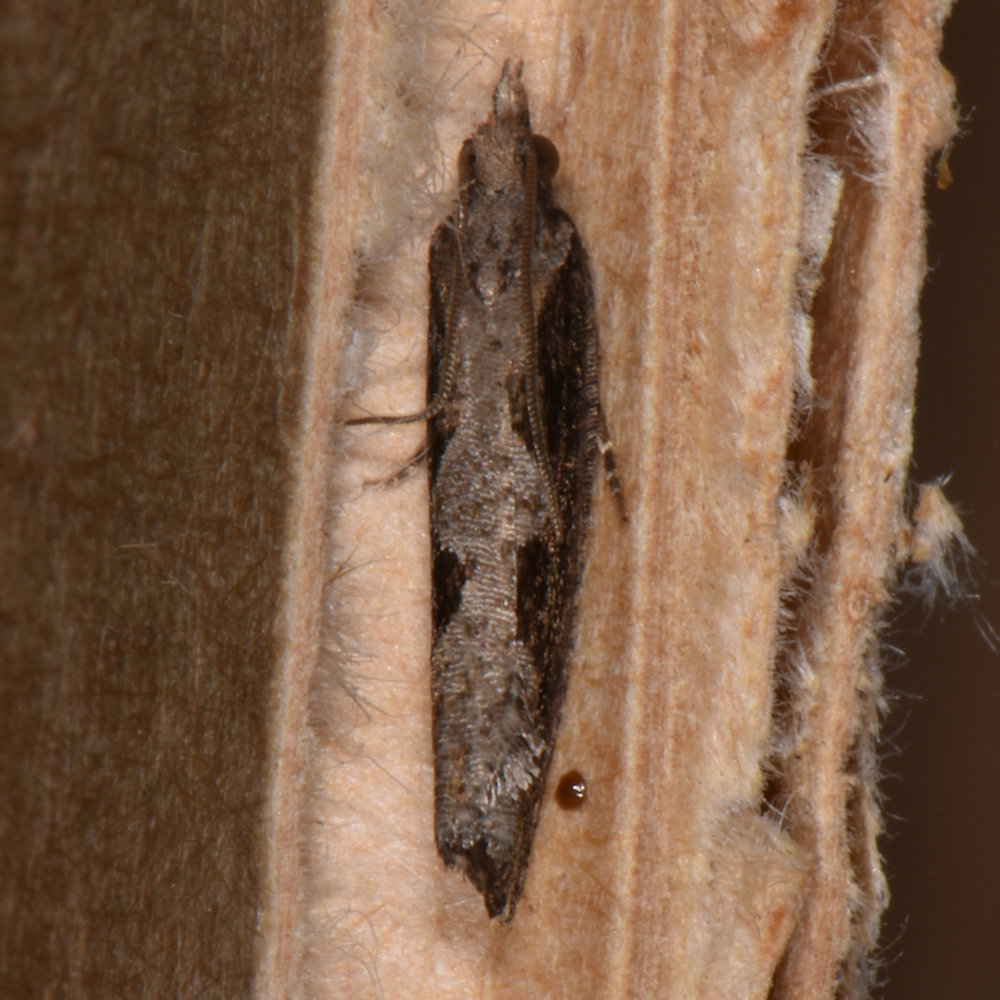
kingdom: Animalia
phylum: Arthropoda
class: Insecta
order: Lepidoptera
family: Tortricidae
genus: Epinotia
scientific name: Epinotia lindana
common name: Diamondback epinotia moth
